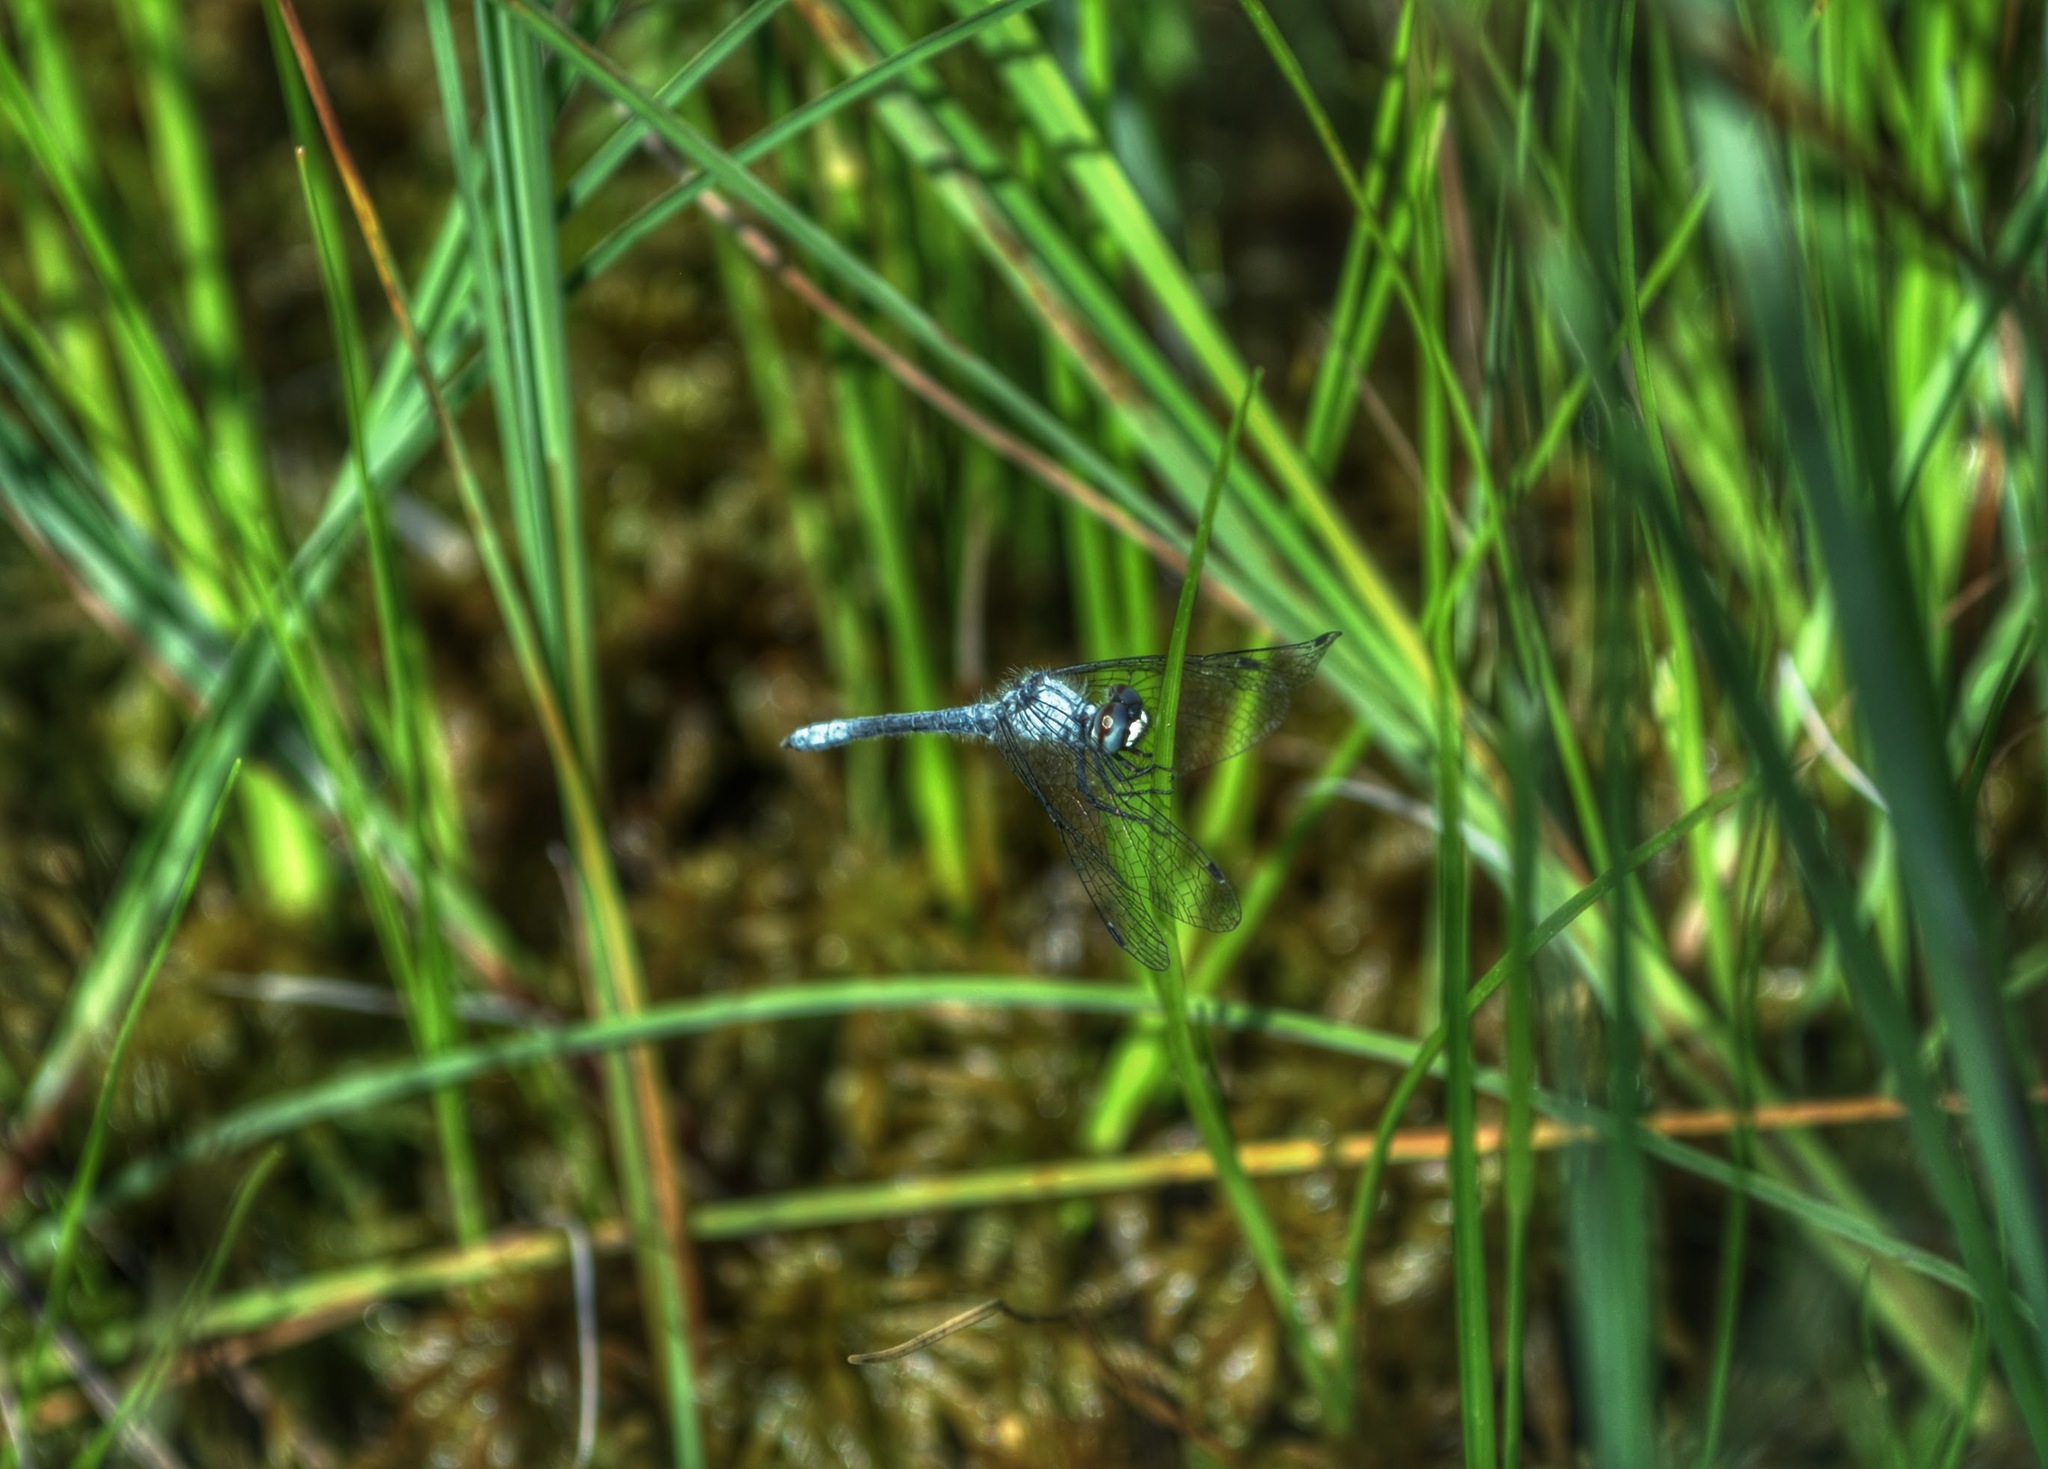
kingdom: Animalia
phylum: Arthropoda
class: Insecta
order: Odonata
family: Libellulidae
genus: Nannothemis
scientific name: Nannothemis bella
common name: Elfin skimmer
